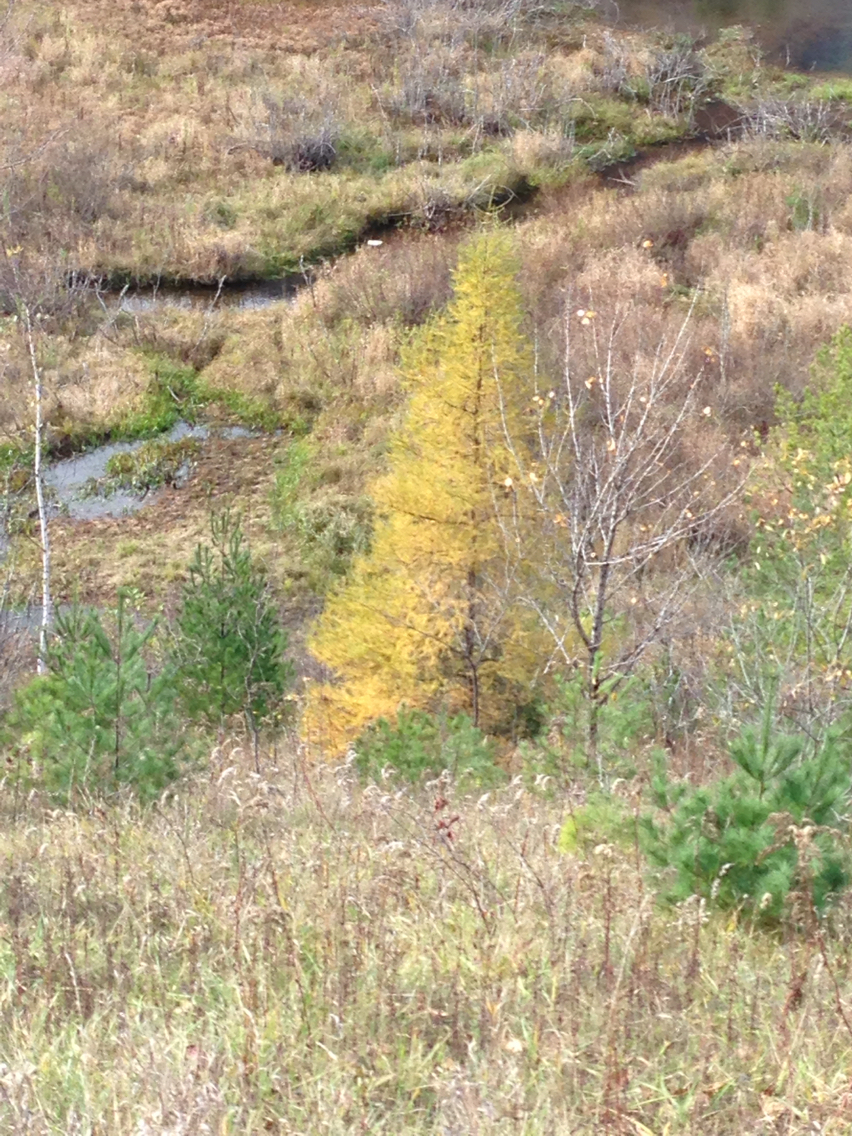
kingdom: Plantae
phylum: Tracheophyta
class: Pinopsida
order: Pinales
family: Pinaceae
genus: Larix
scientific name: Larix laricina
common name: American larch
